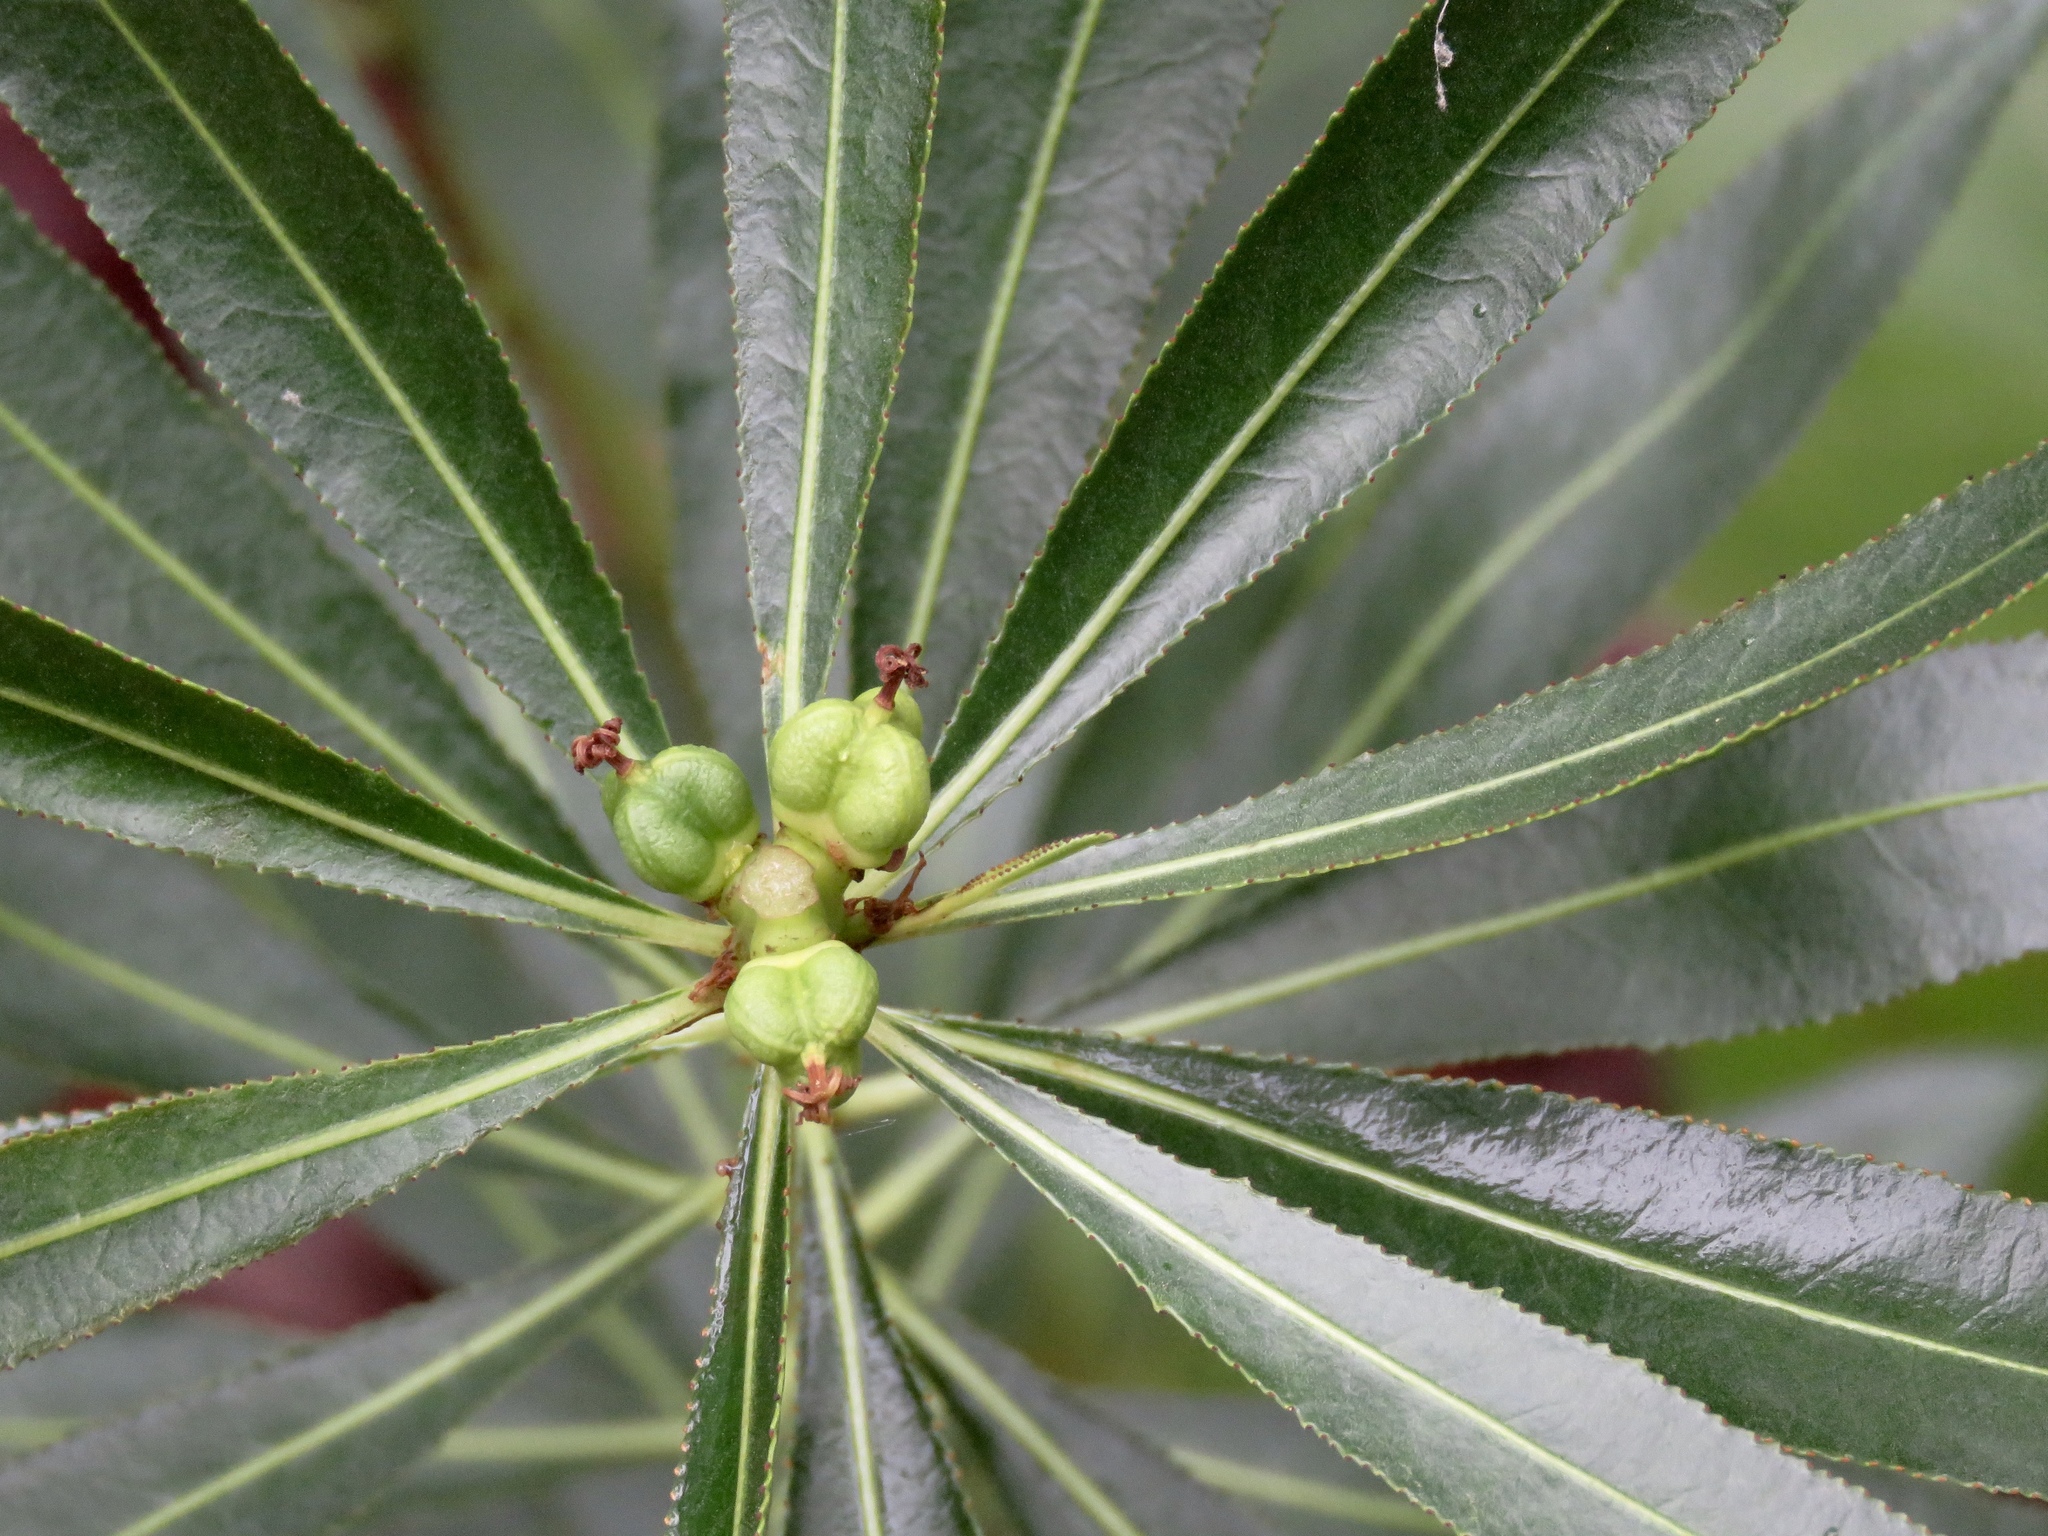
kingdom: Plantae
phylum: Tracheophyta
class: Magnoliopsida
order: Malpighiales
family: Euphorbiaceae
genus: Stillingia
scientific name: Stillingia sylvatica
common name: Queen's-delight
